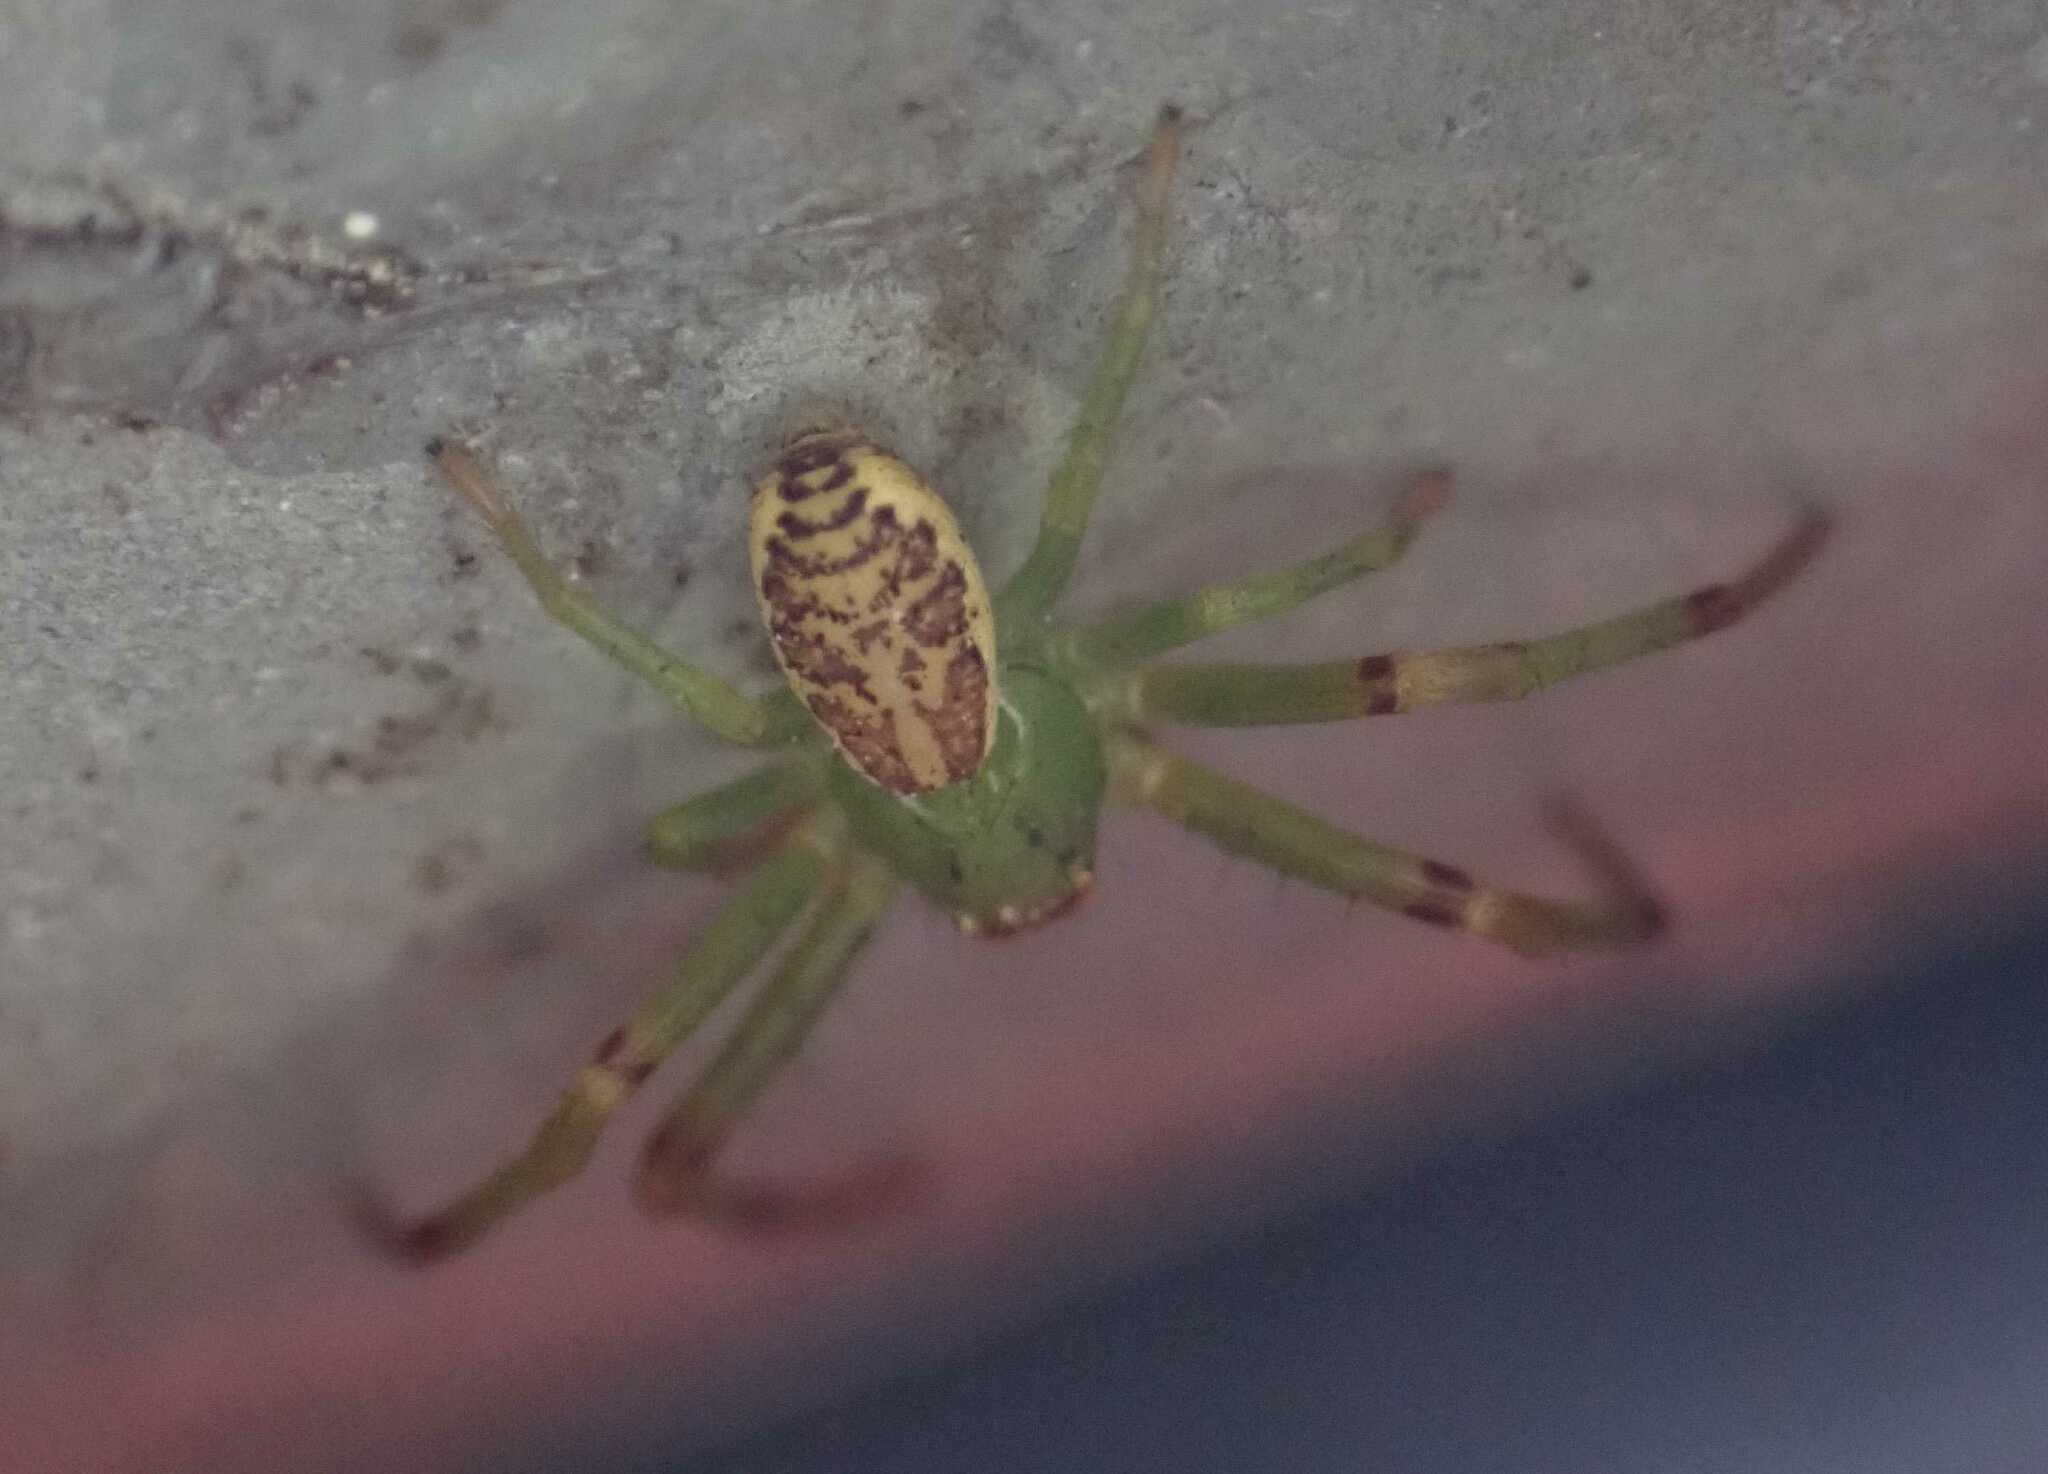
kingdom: Animalia
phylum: Arthropoda
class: Arachnida
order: Araneae
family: Thomisidae
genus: Diaea
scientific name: Diaea dorsata
